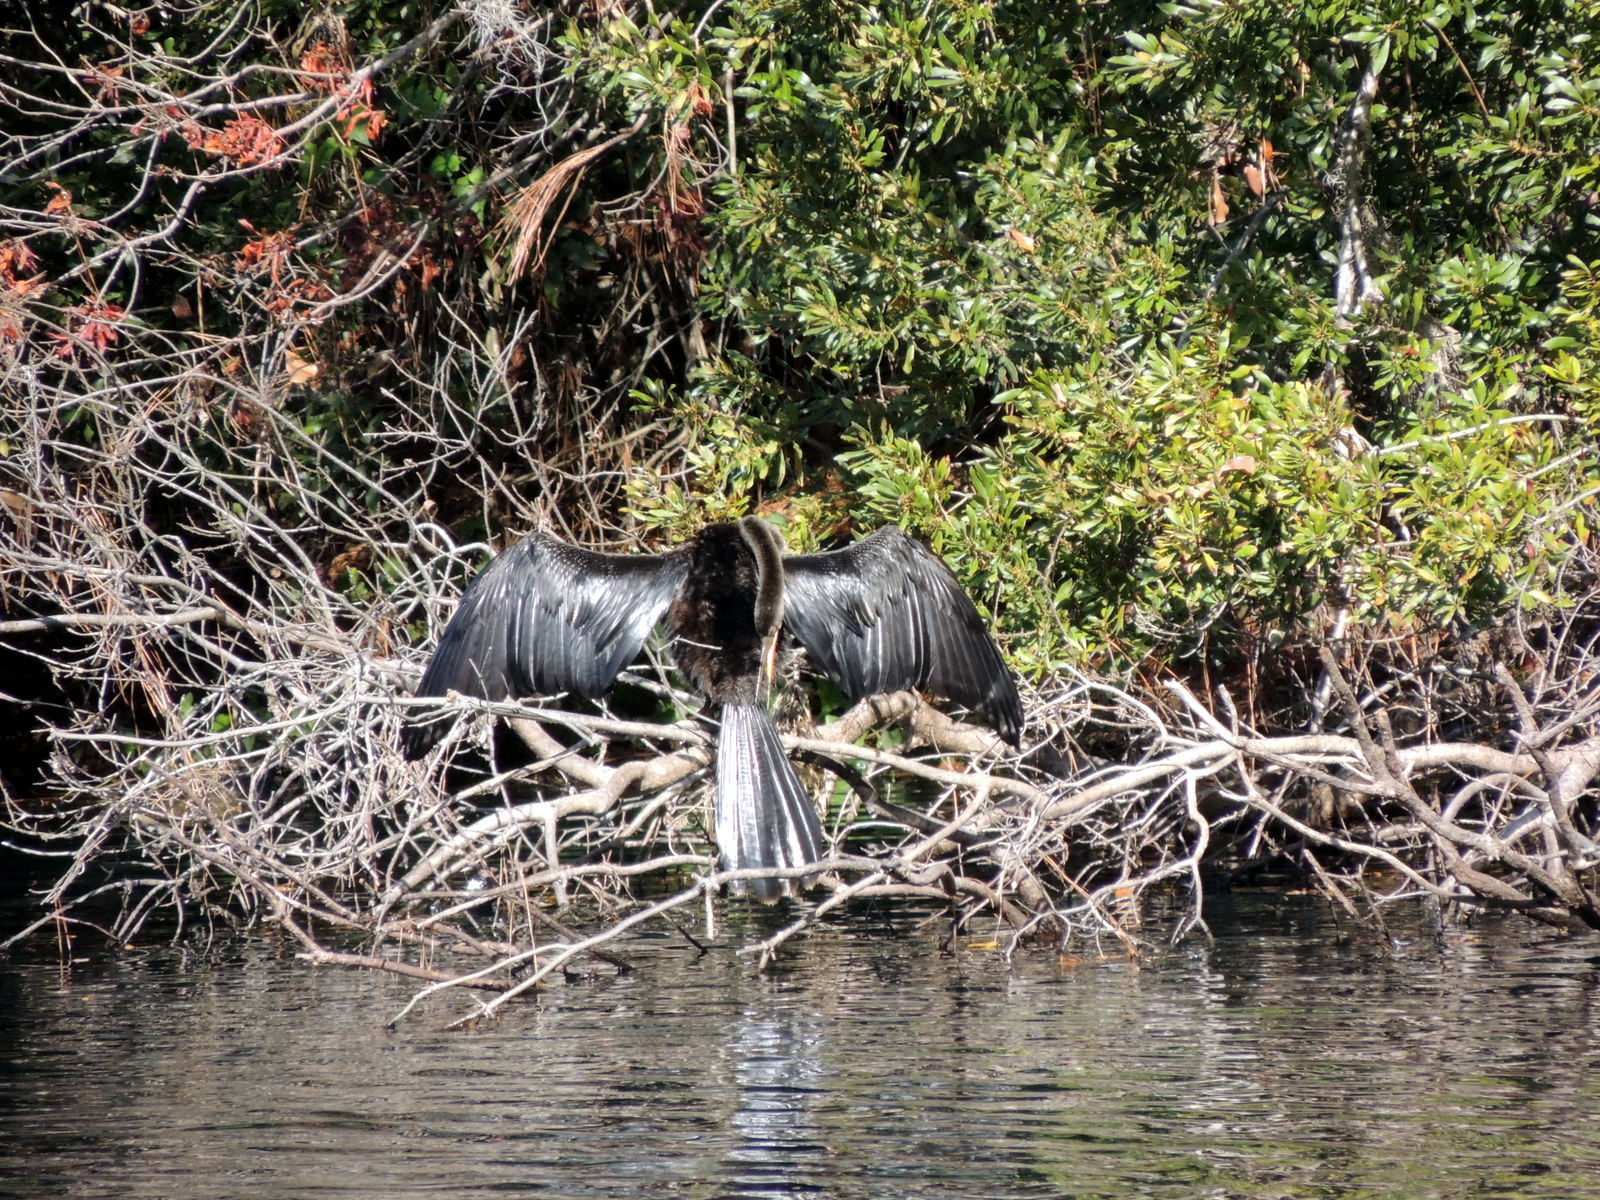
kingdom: Animalia
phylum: Chordata
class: Aves
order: Suliformes
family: Anhingidae
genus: Anhinga
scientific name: Anhinga anhinga
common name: Anhinga
